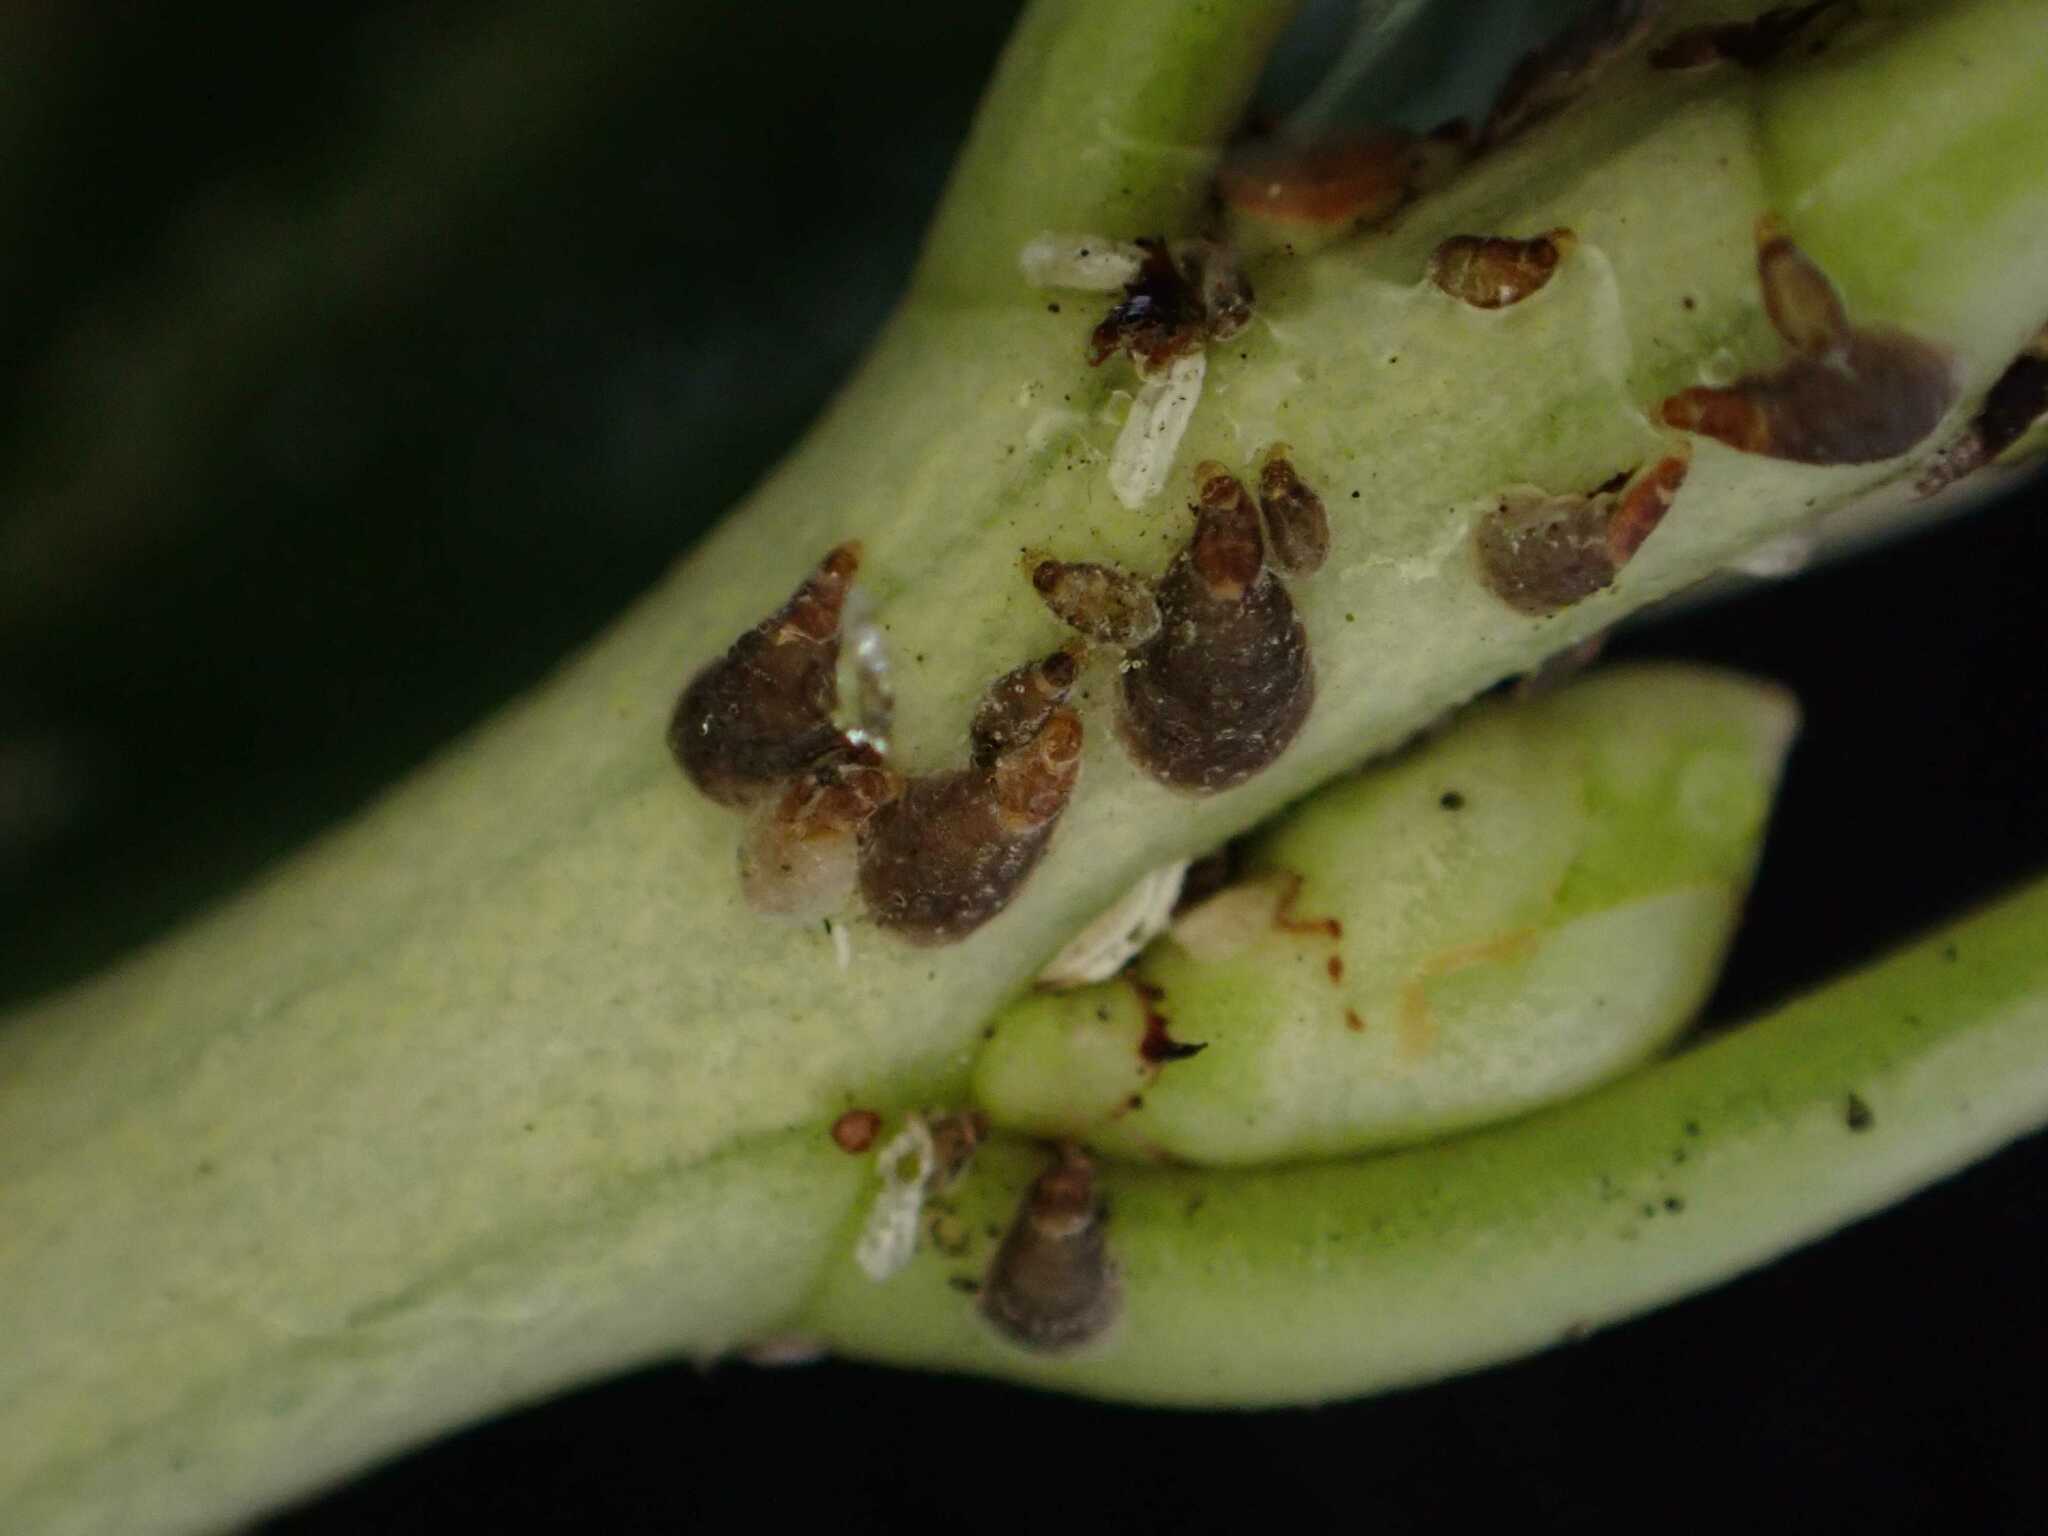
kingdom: Animalia
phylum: Arthropoda
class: Insecta
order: Hemiptera
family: Diaspididae
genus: Unaspis
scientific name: Unaspis euonymi
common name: Euonymus scale
